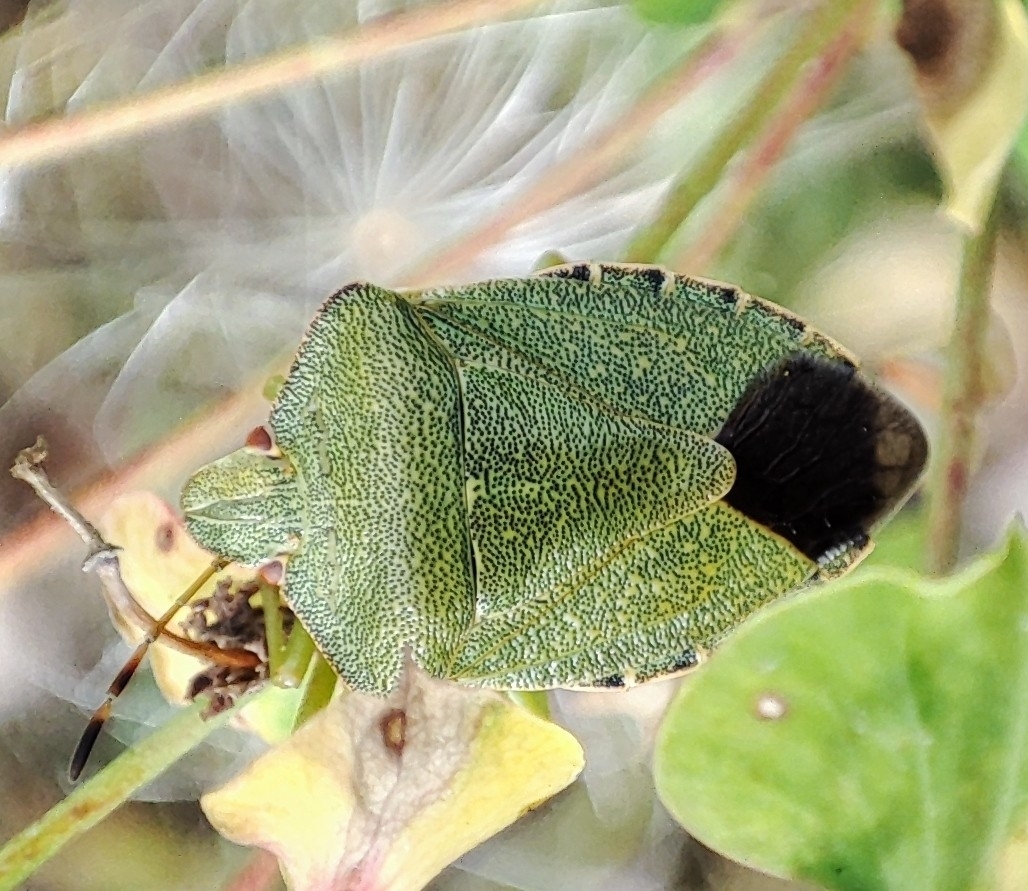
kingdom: Animalia
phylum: Arthropoda
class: Insecta
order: Hemiptera
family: Pentatomidae
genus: Palomena
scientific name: Palomena prasina
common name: Green shieldbug
